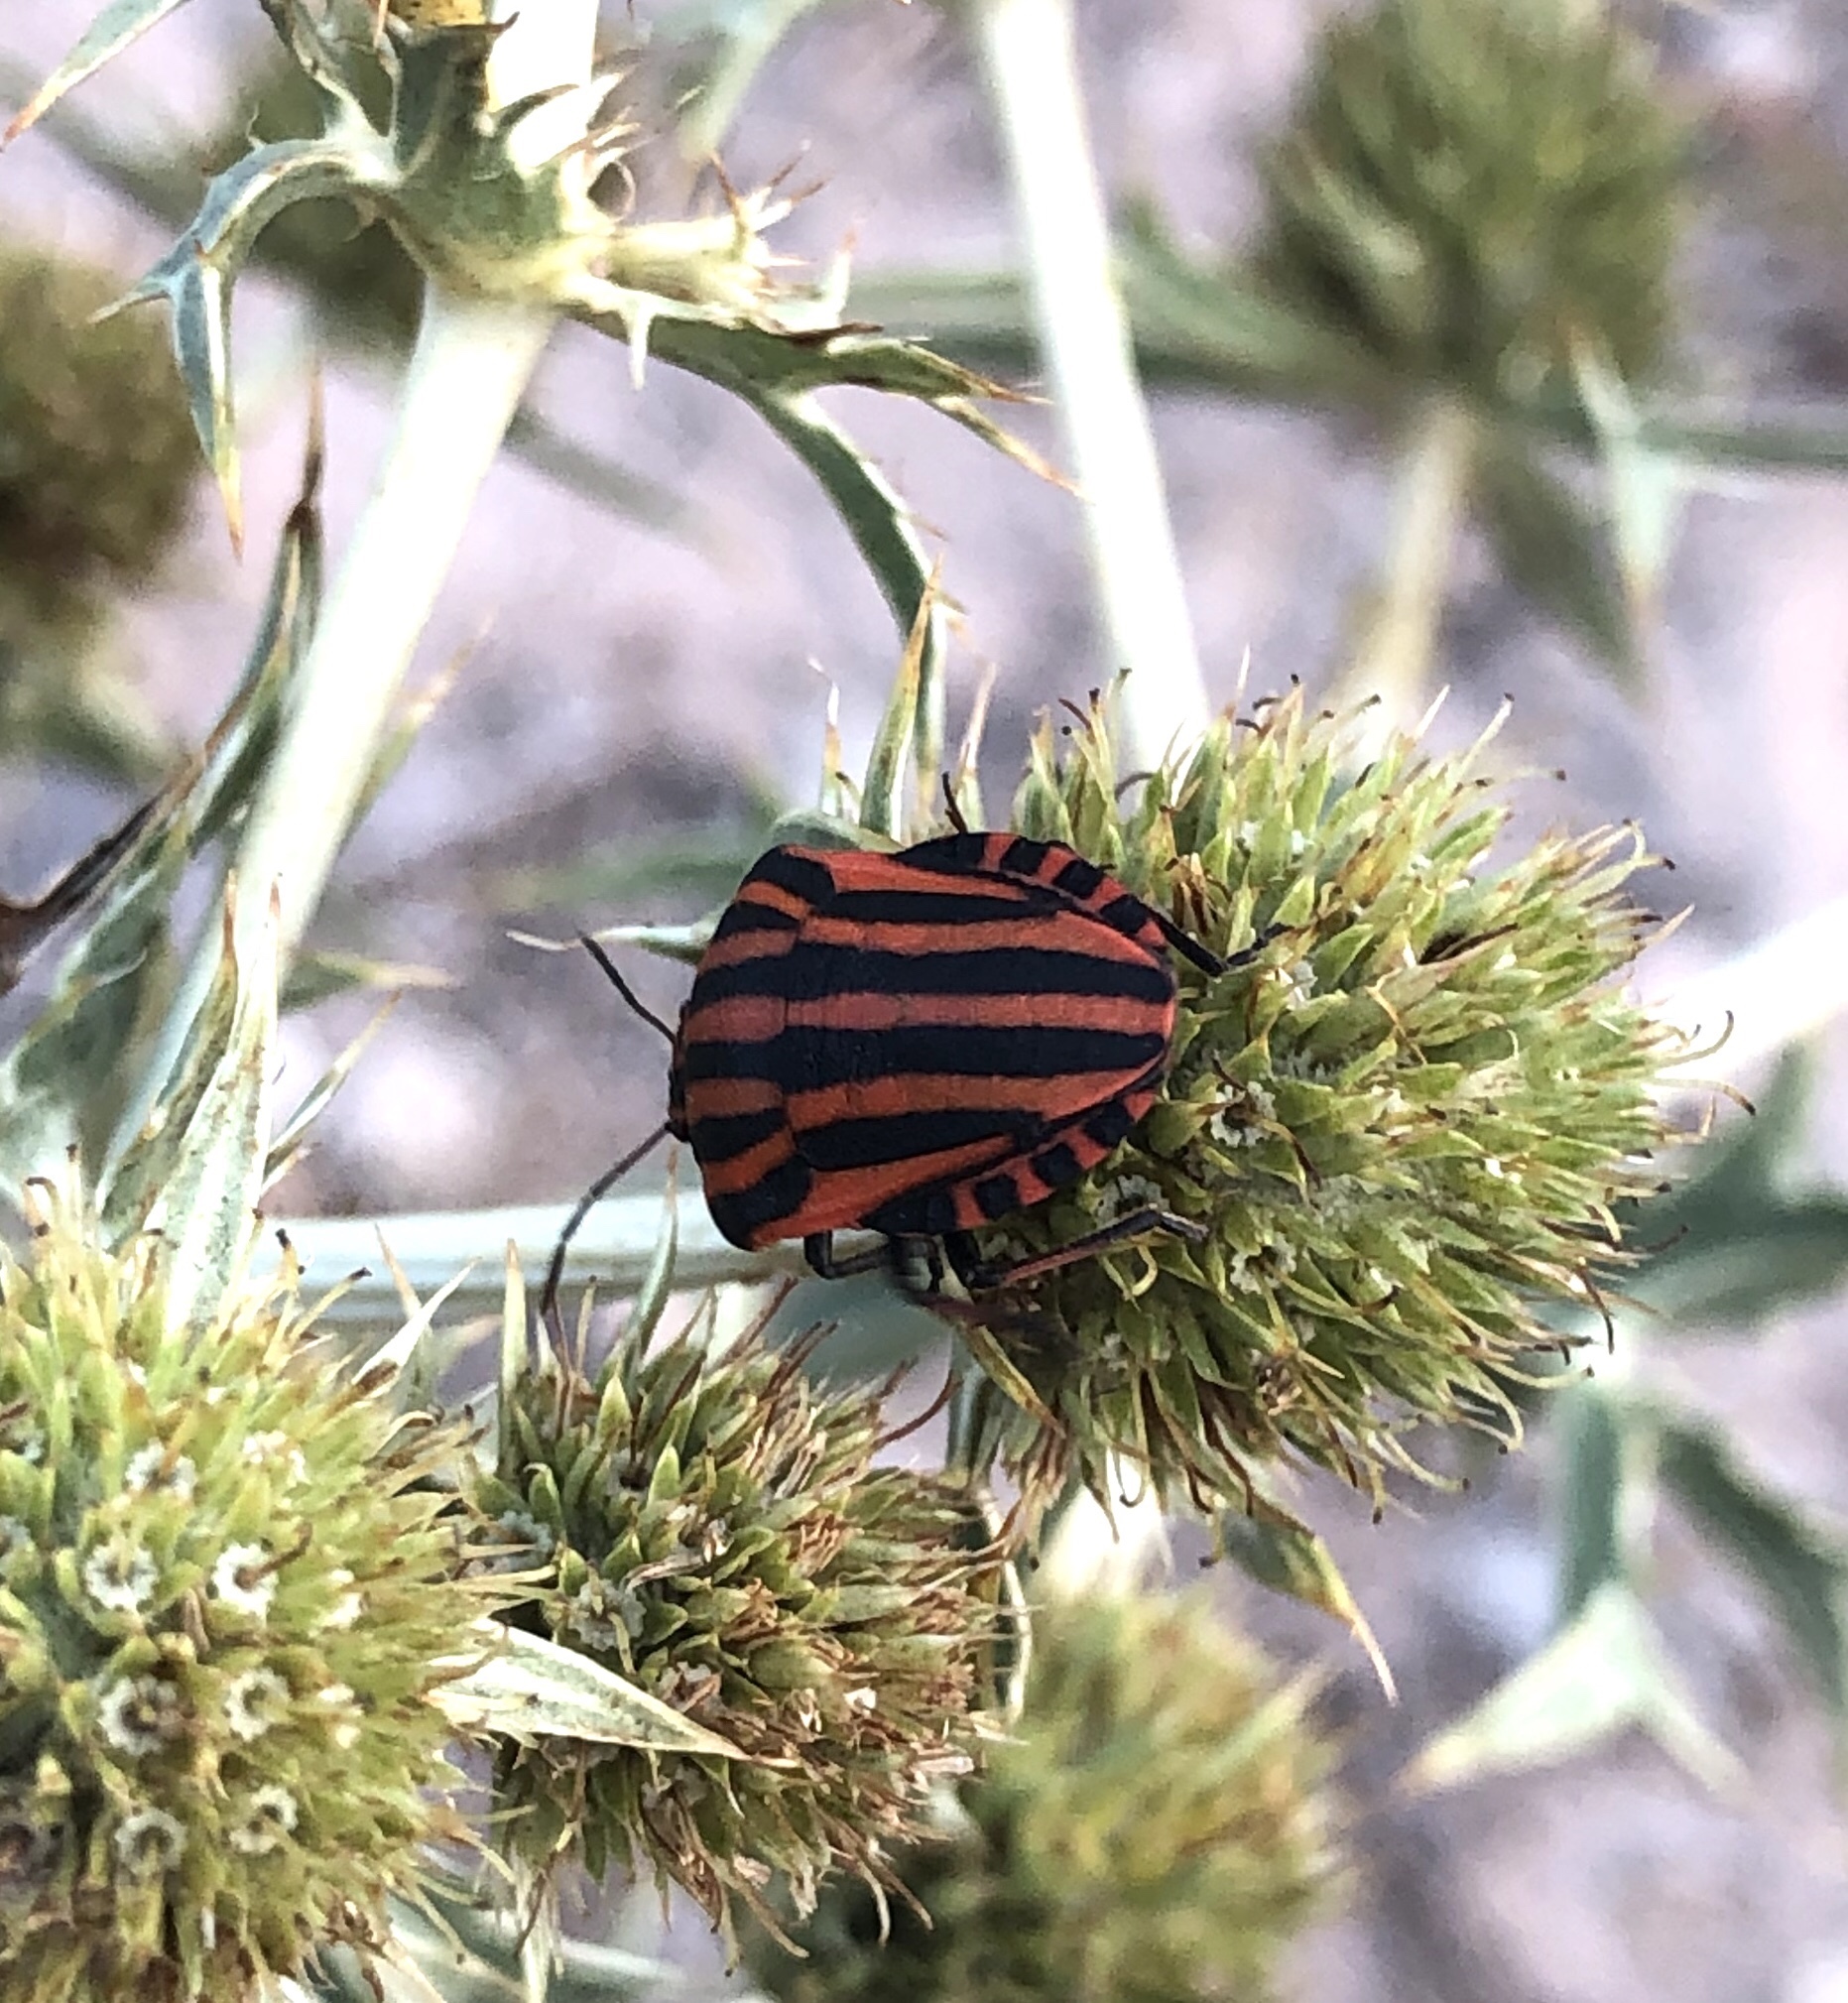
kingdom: Animalia
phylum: Arthropoda
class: Insecta
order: Hemiptera
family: Pentatomidae
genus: Graphosoma
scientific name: Graphosoma italicum
